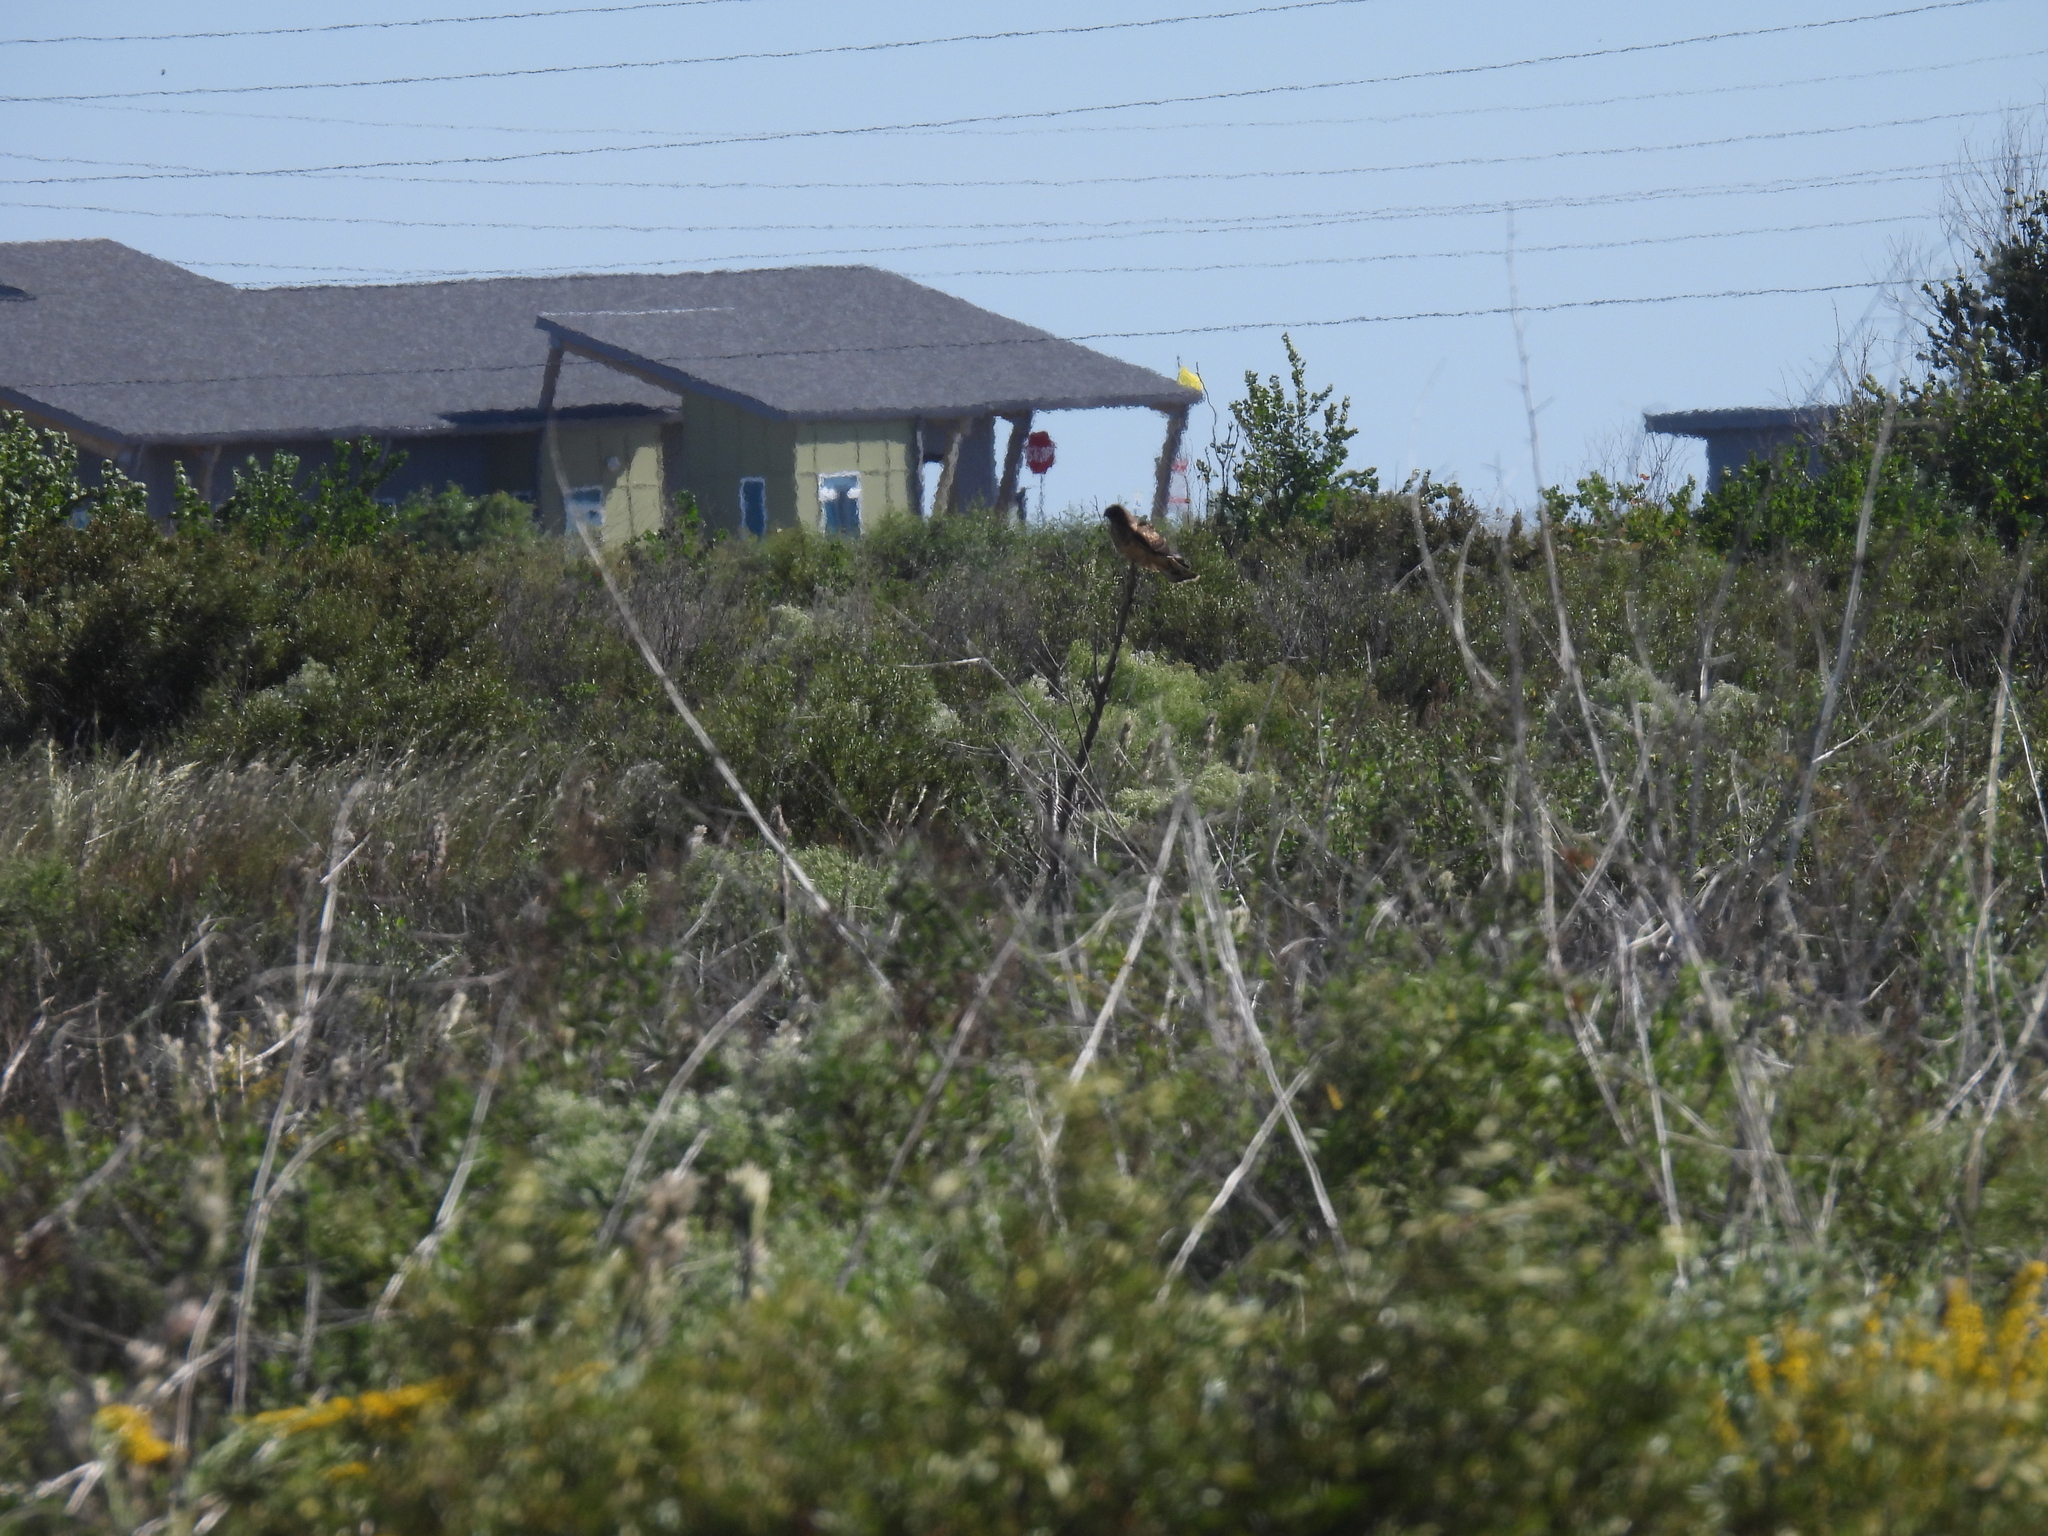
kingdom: Animalia
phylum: Chordata
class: Aves
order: Accipitriformes
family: Accipitridae
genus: Circus
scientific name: Circus cyaneus
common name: Hen harrier
